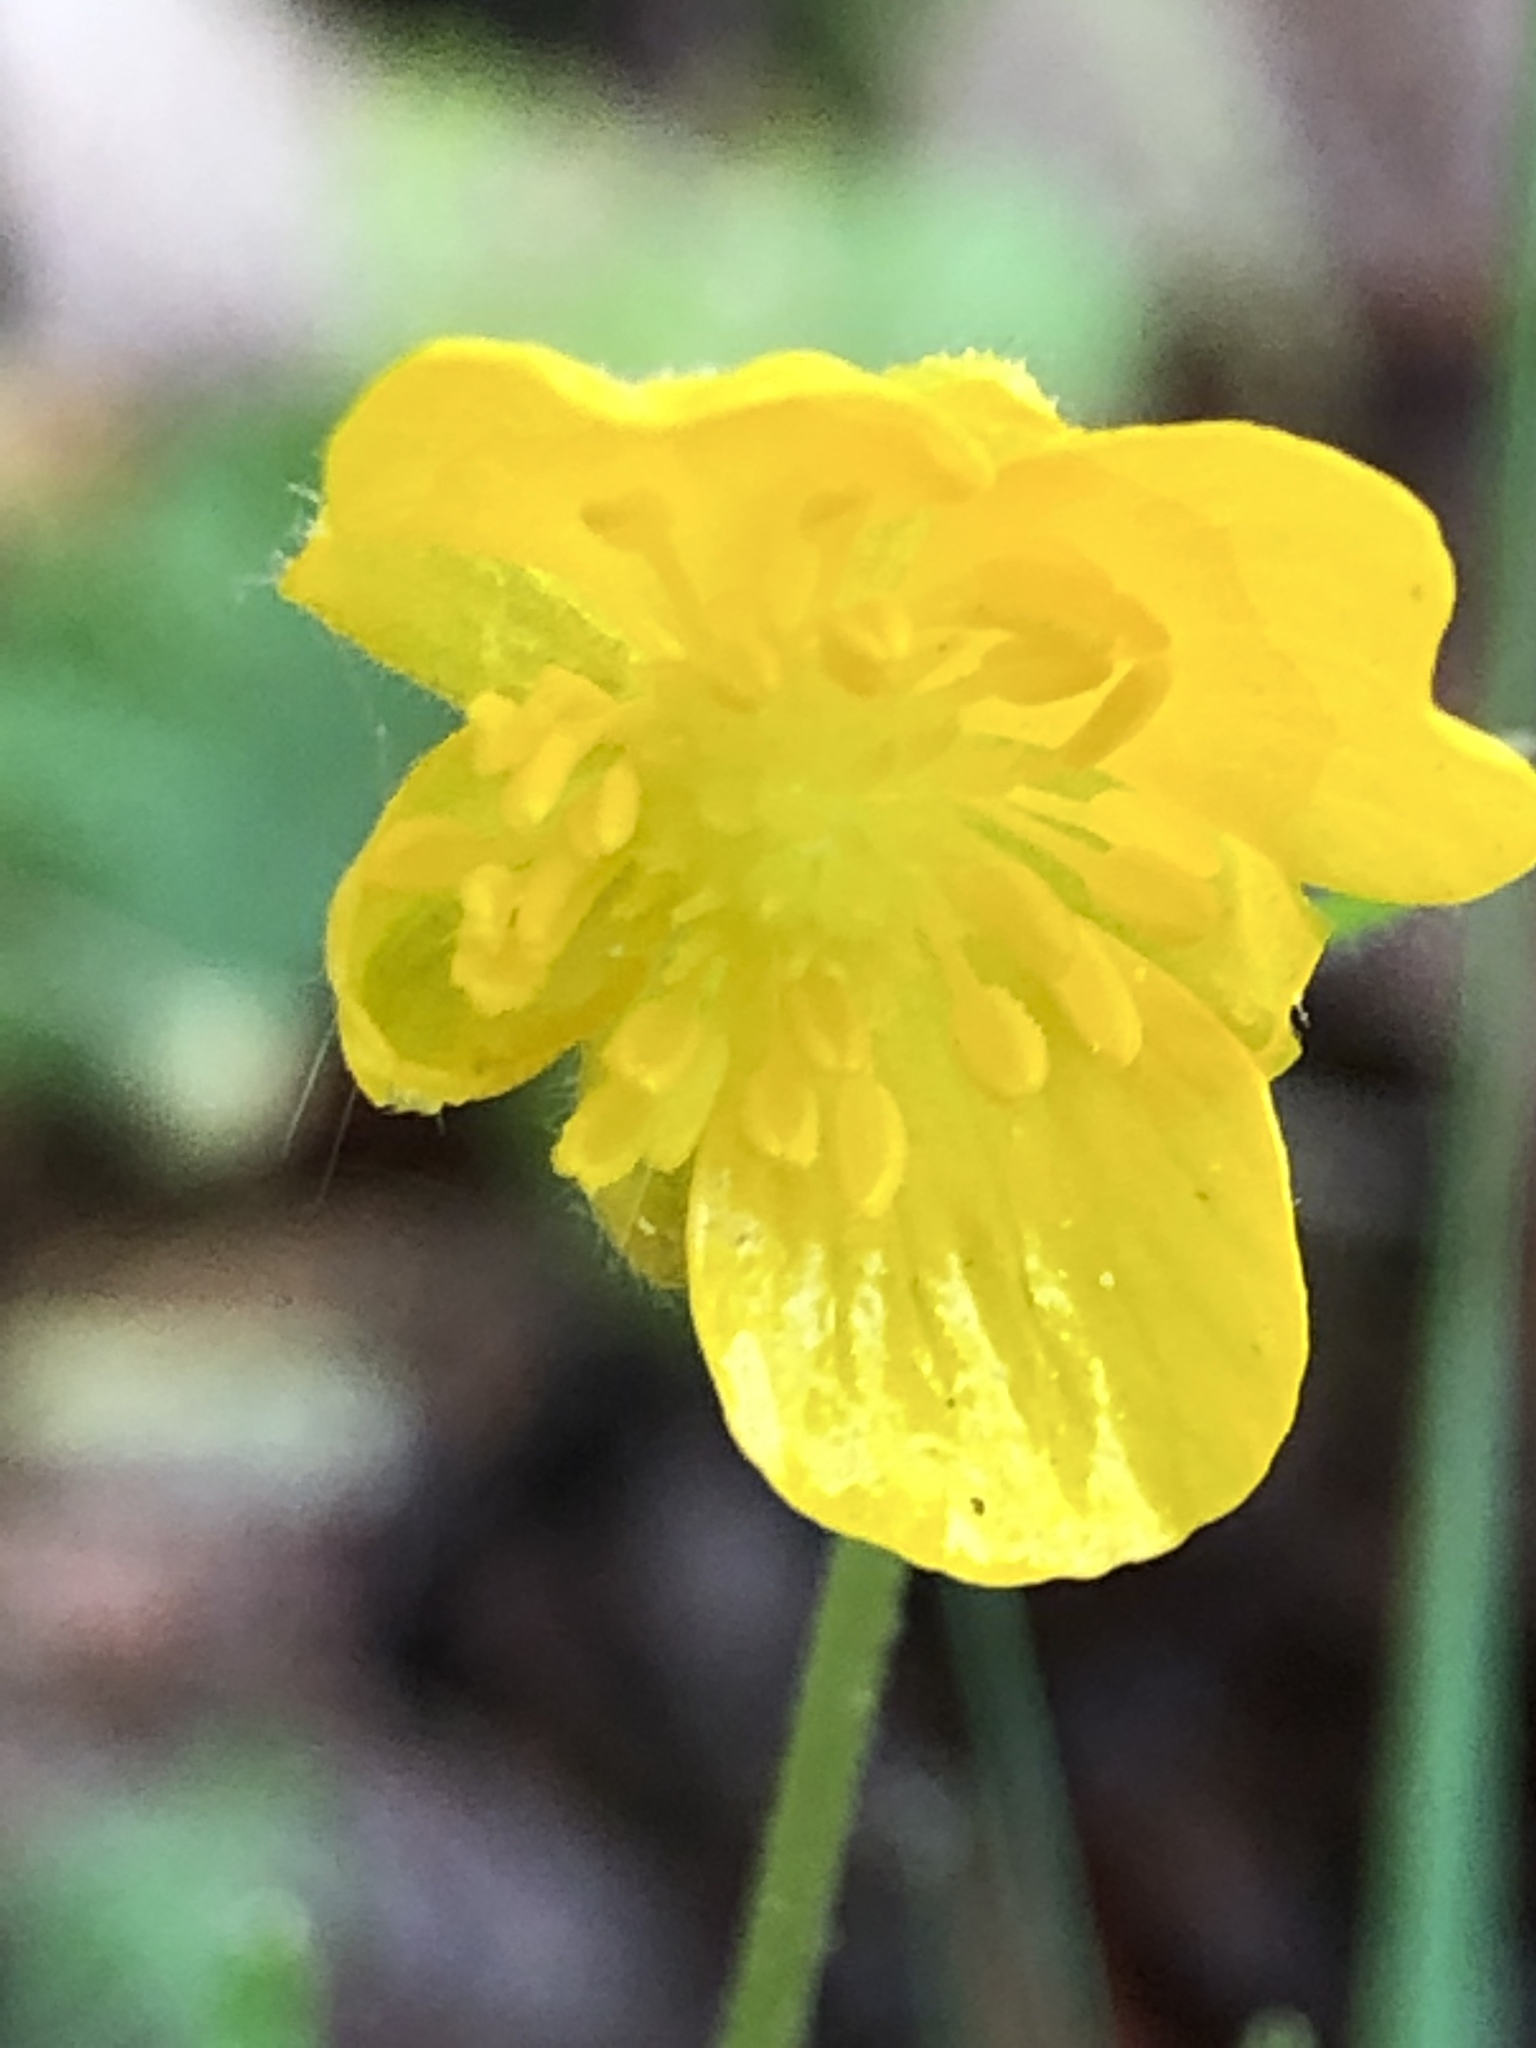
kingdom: Plantae
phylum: Tracheophyta
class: Magnoliopsida
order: Ranunculales
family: Ranunculaceae
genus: Ranunculus
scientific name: Ranunculus auricomus
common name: Goldilocks buttercup
